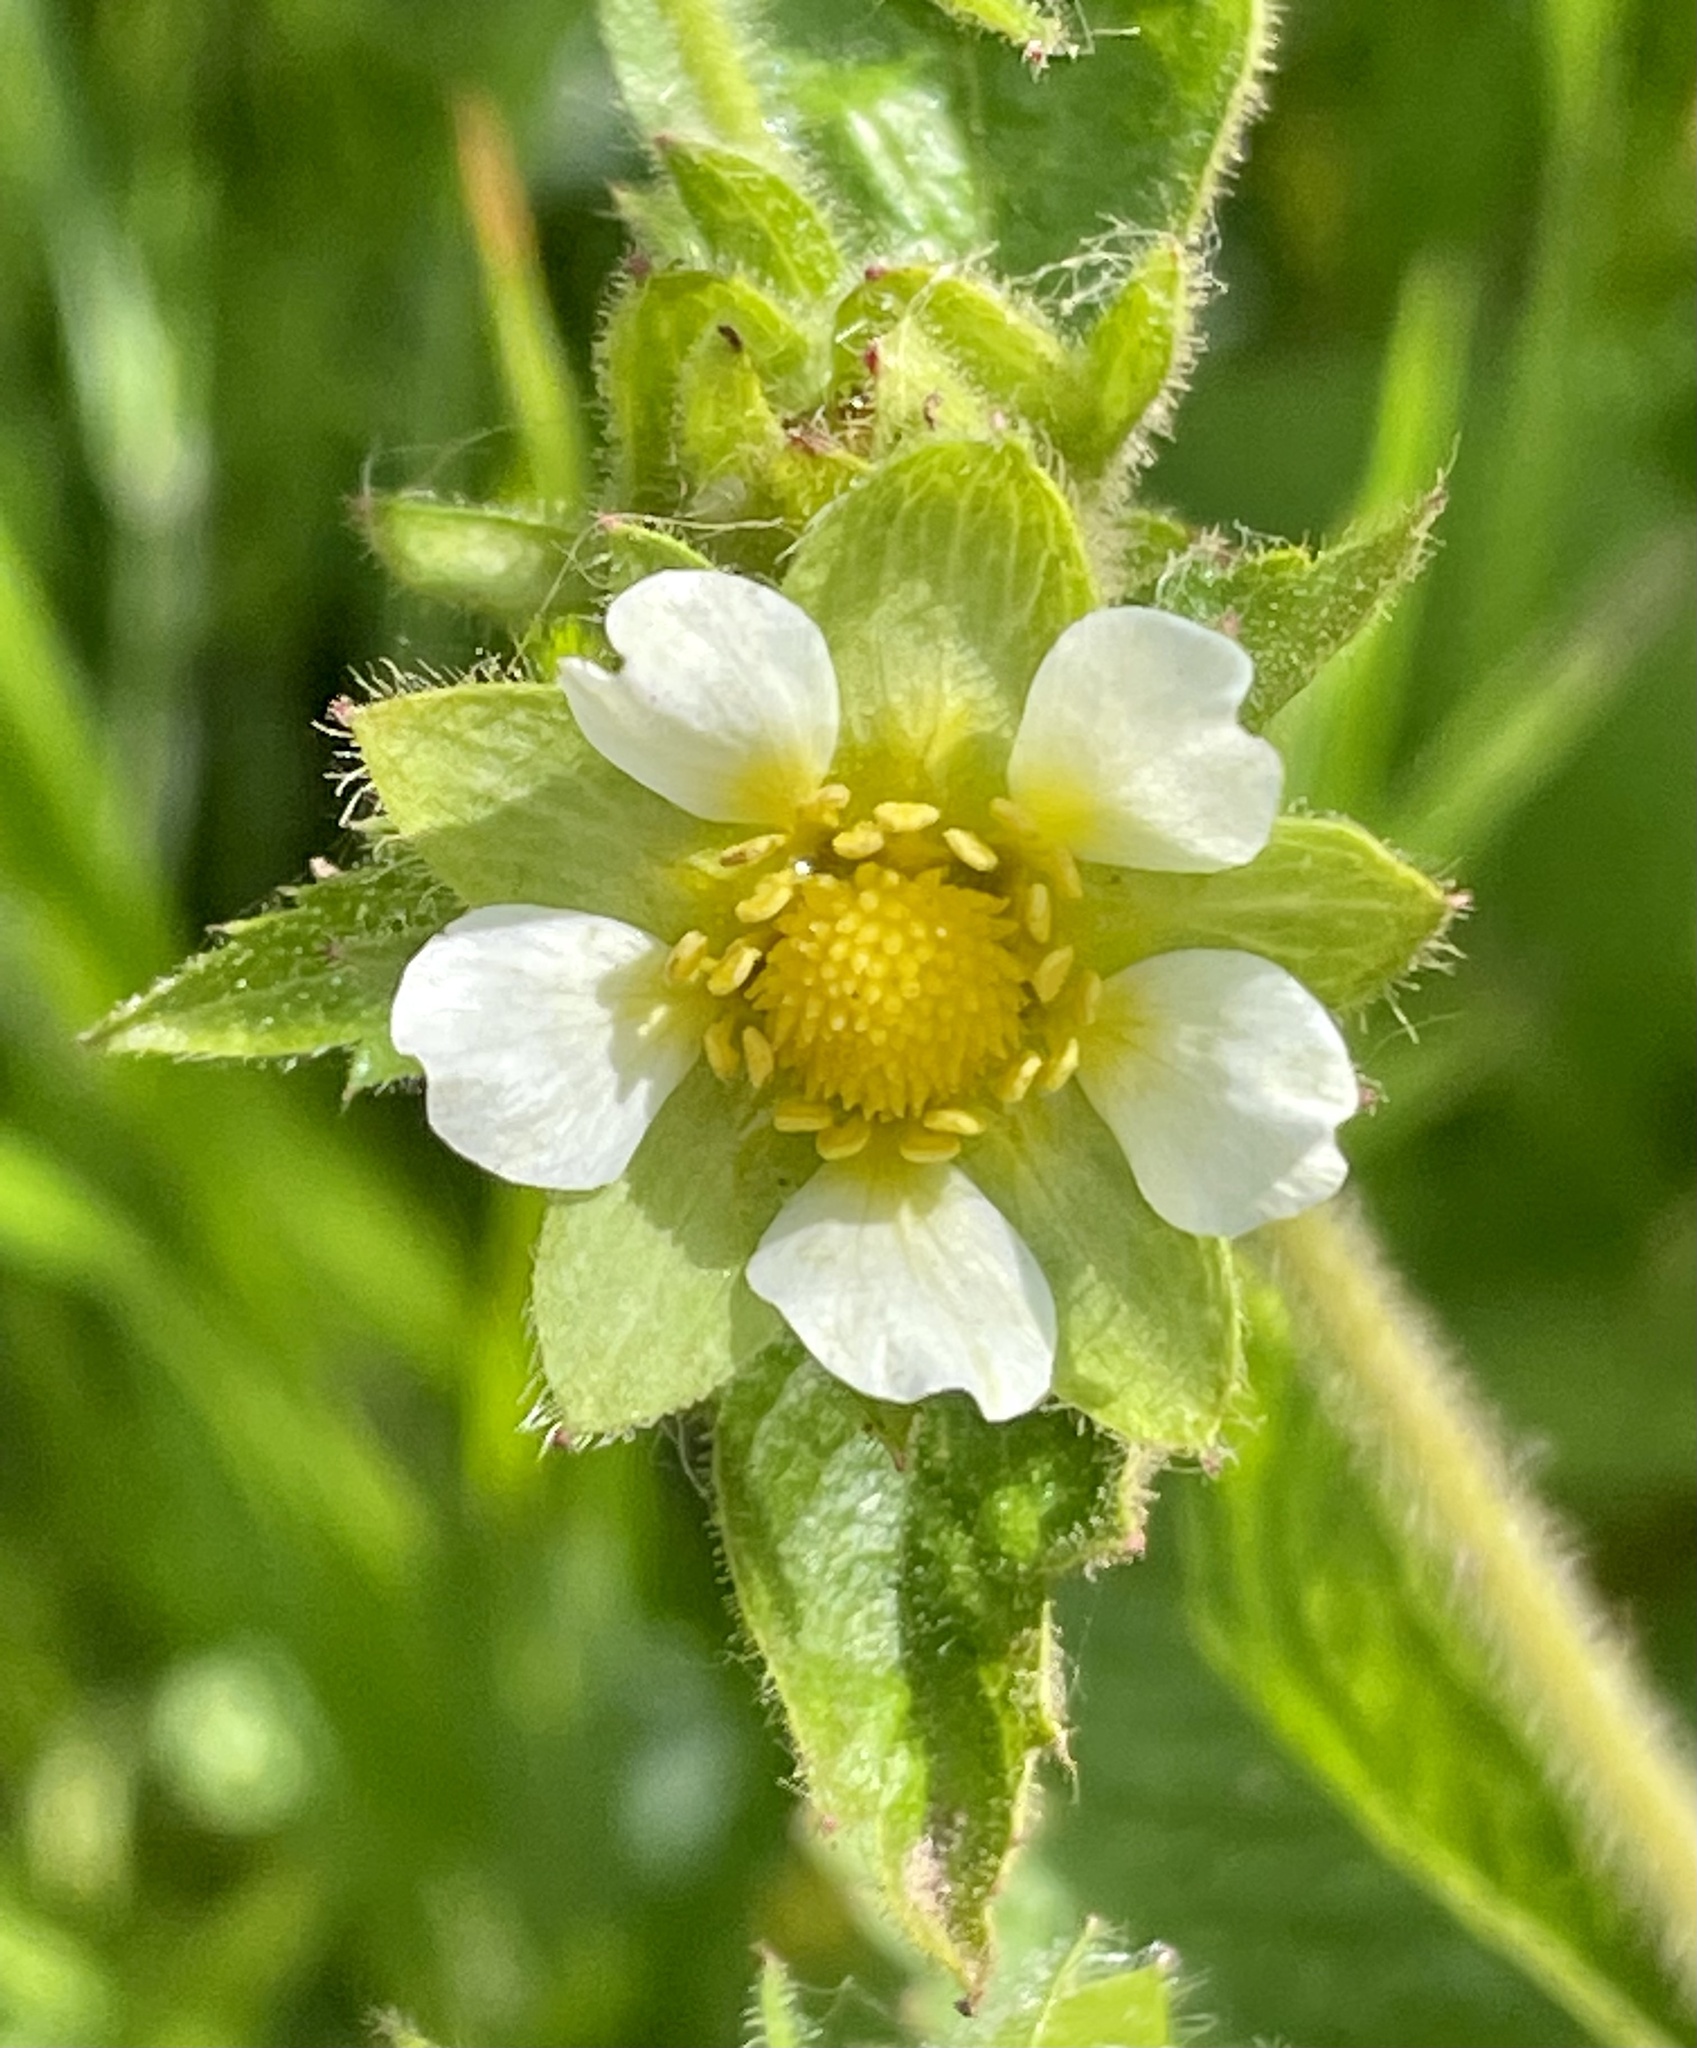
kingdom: Plantae
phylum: Tracheophyta
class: Magnoliopsida
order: Rosales
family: Rosaceae
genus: Drymocallis
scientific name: Drymocallis glandulosa
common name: Sticky cinquefoil
